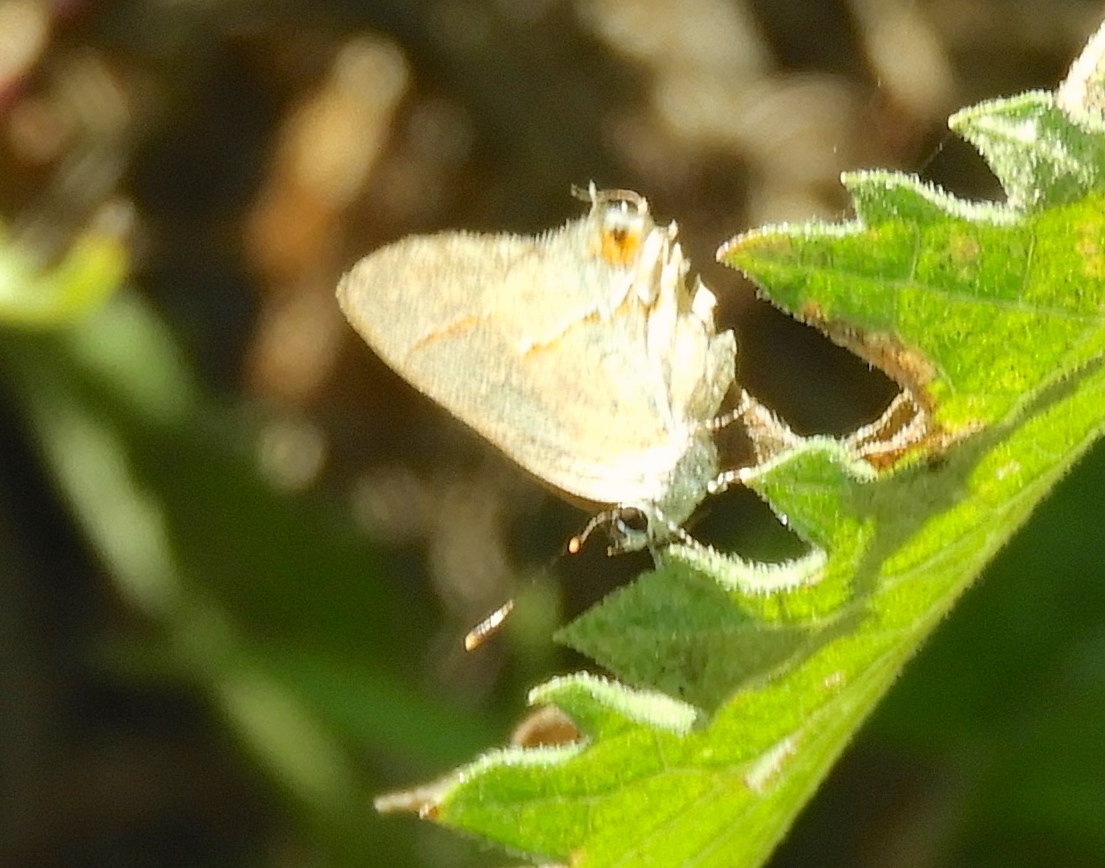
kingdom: Animalia
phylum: Arthropoda
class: Insecta
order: Lepidoptera
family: Lycaenidae
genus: Electrostrymon
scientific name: Electrostrymon endymion
